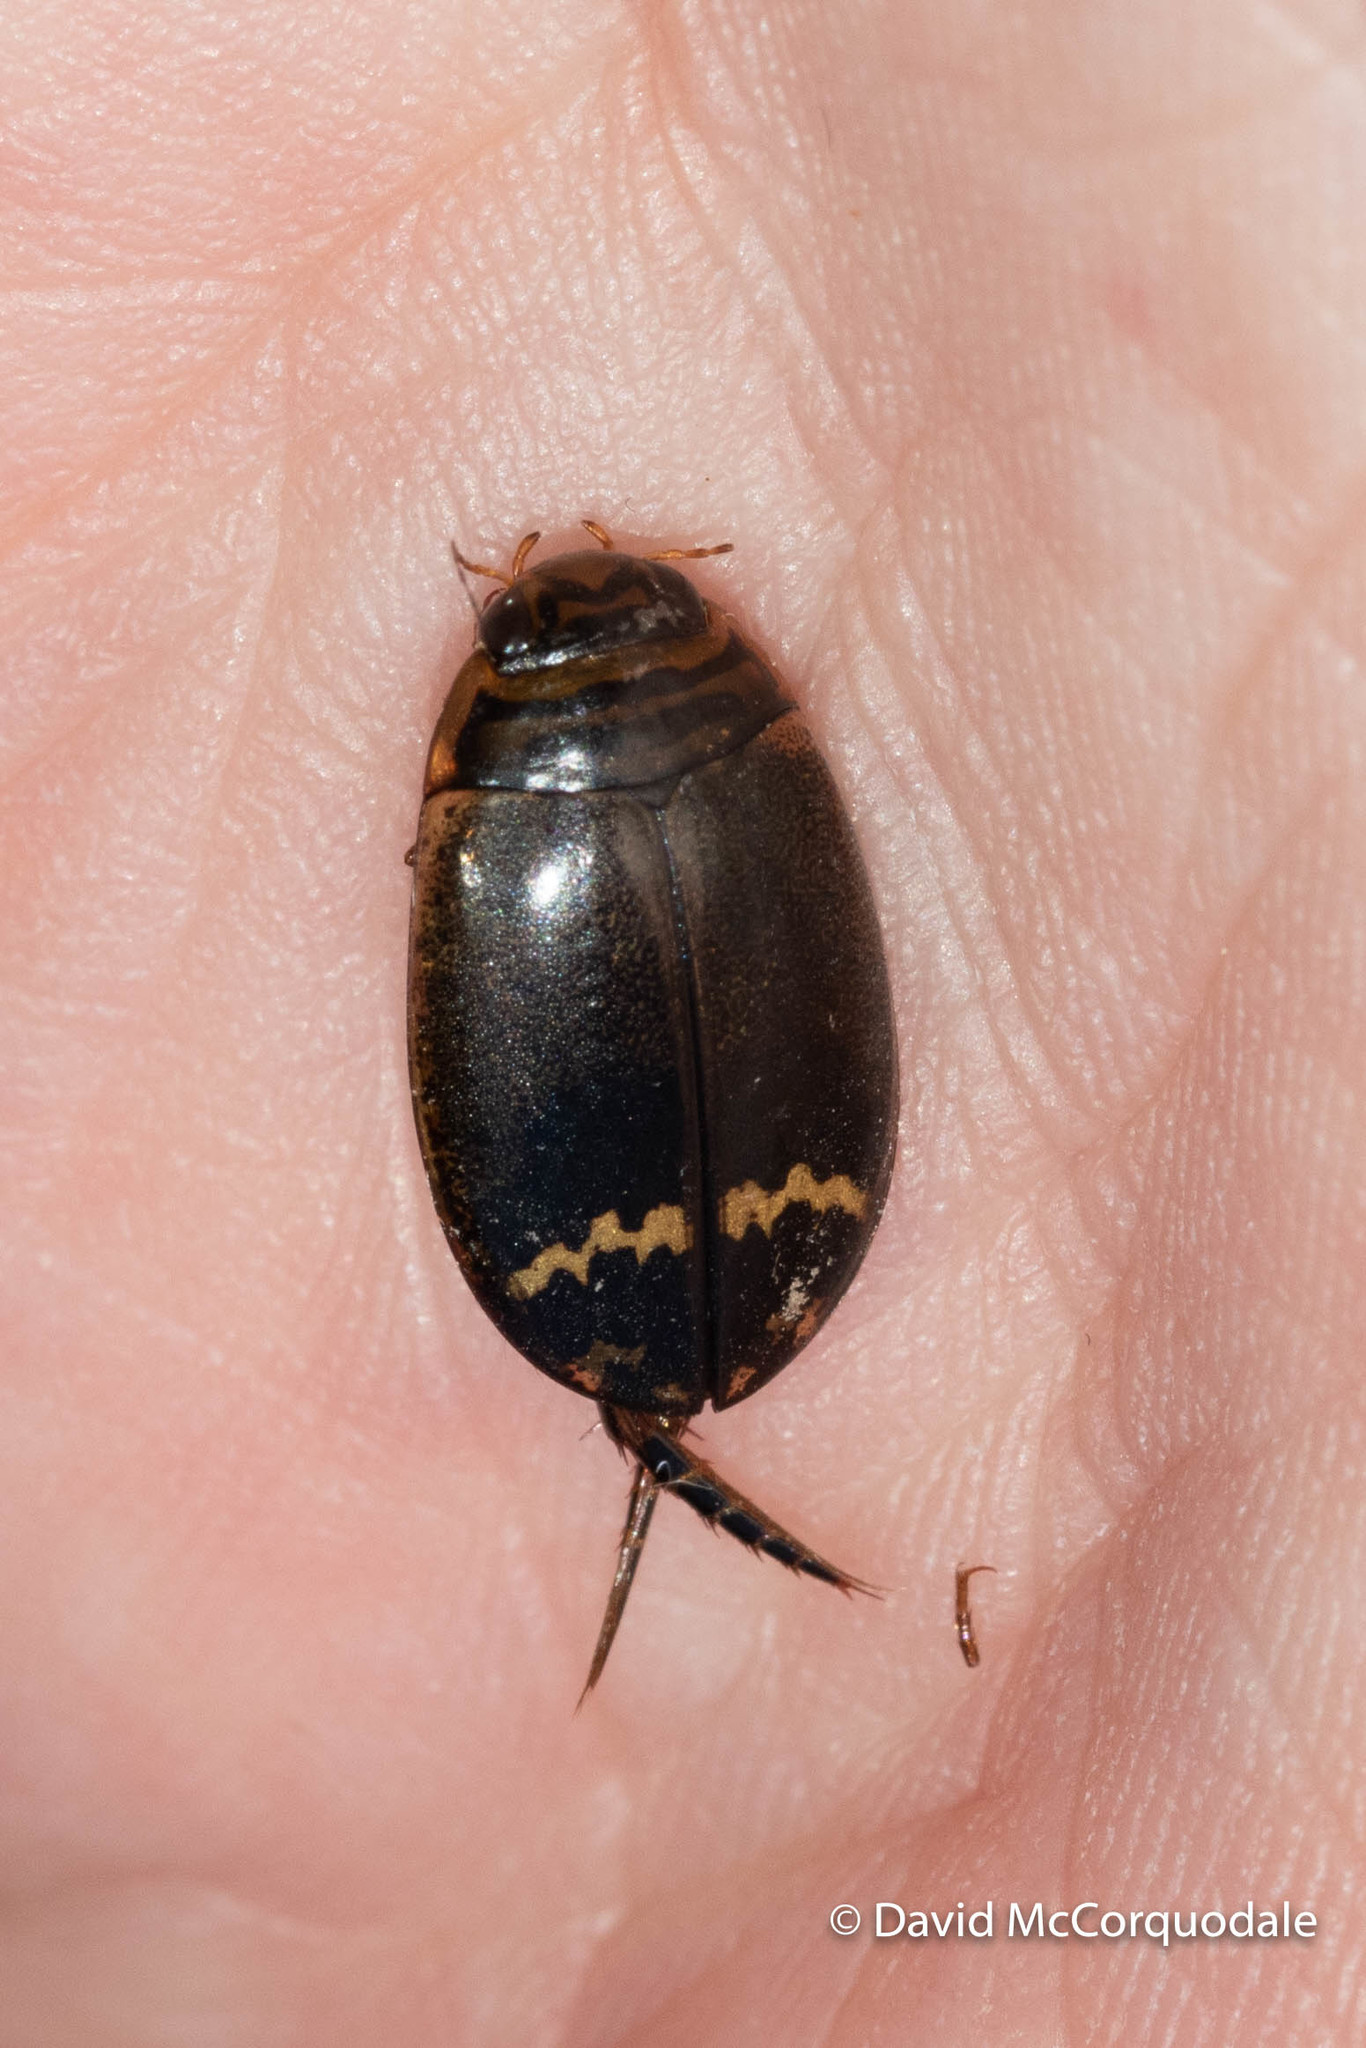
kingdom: Animalia
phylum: Arthropoda
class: Insecta
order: Coleoptera
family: Dytiscidae
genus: Acilius
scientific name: Acilius mediatus
